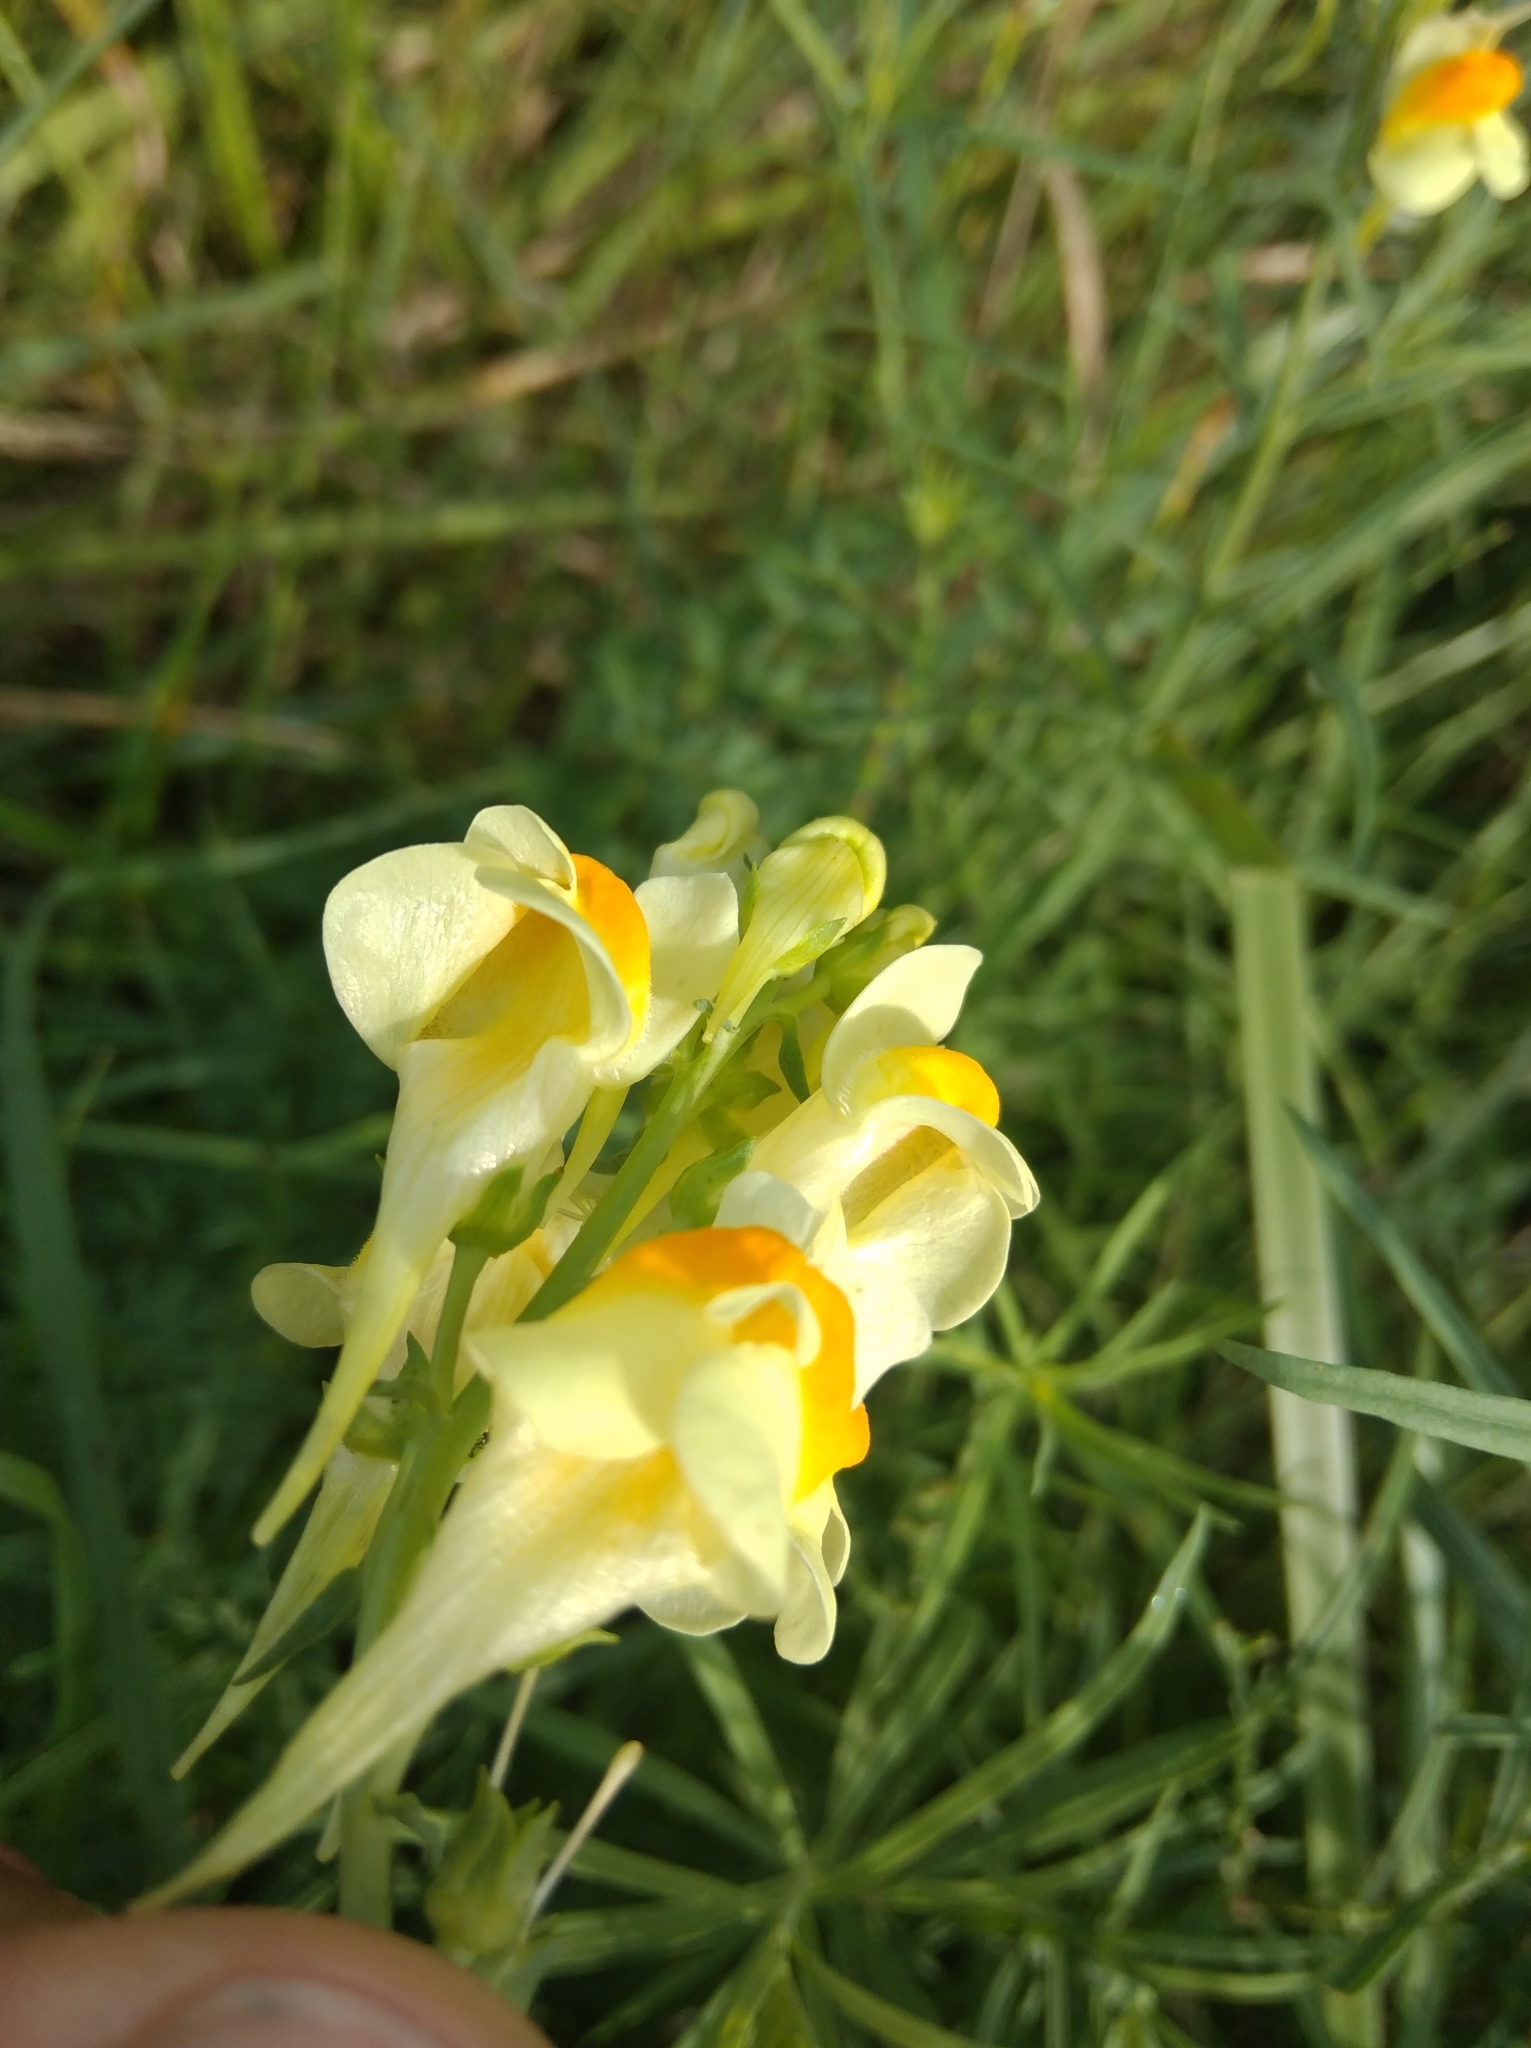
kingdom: Plantae
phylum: Tracheophyta
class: Magnoliopsida
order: Lamiales
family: Plantaginaceae
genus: Linaria
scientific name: Linaria vulgaris
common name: Butter and eggs
